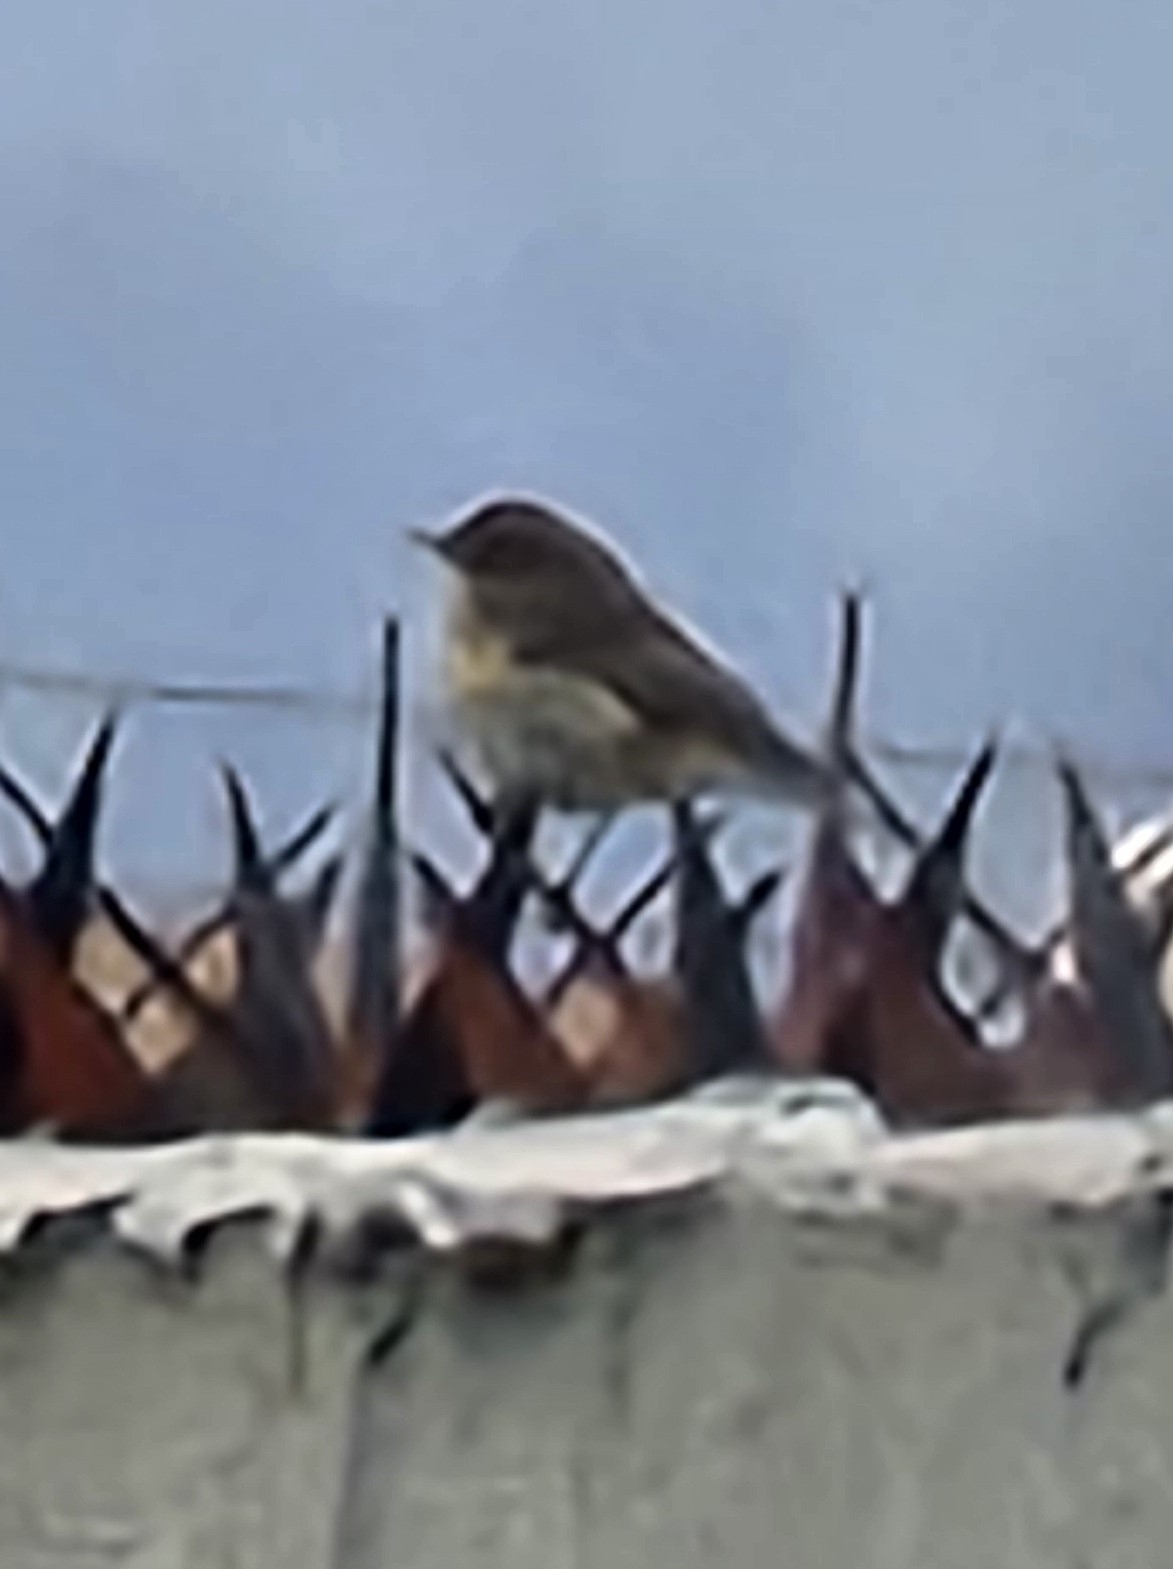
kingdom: Animalia
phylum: Chordata
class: Aves
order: Passeriformes
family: Parulidae
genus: Setophaga
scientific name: Setophaga coronata
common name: Myrtle warbler
